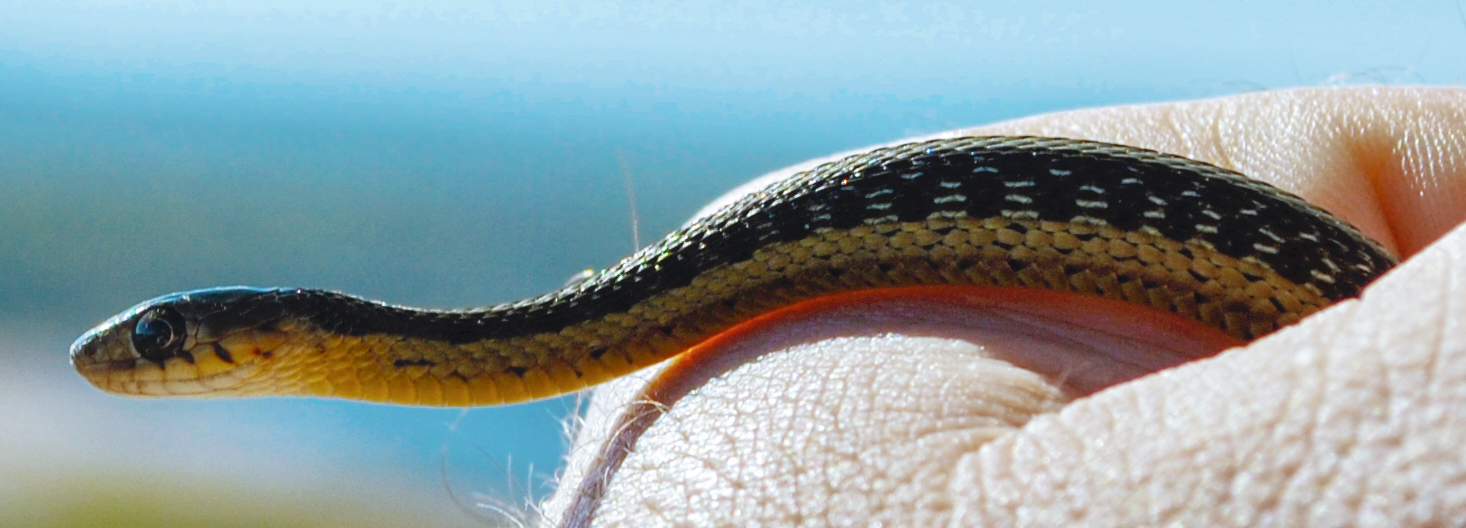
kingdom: Animalia
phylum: Chordata
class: Squamata
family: Colubridae
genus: Thamnophis
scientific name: Thamnophis sirtalis
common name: Common garter snake
